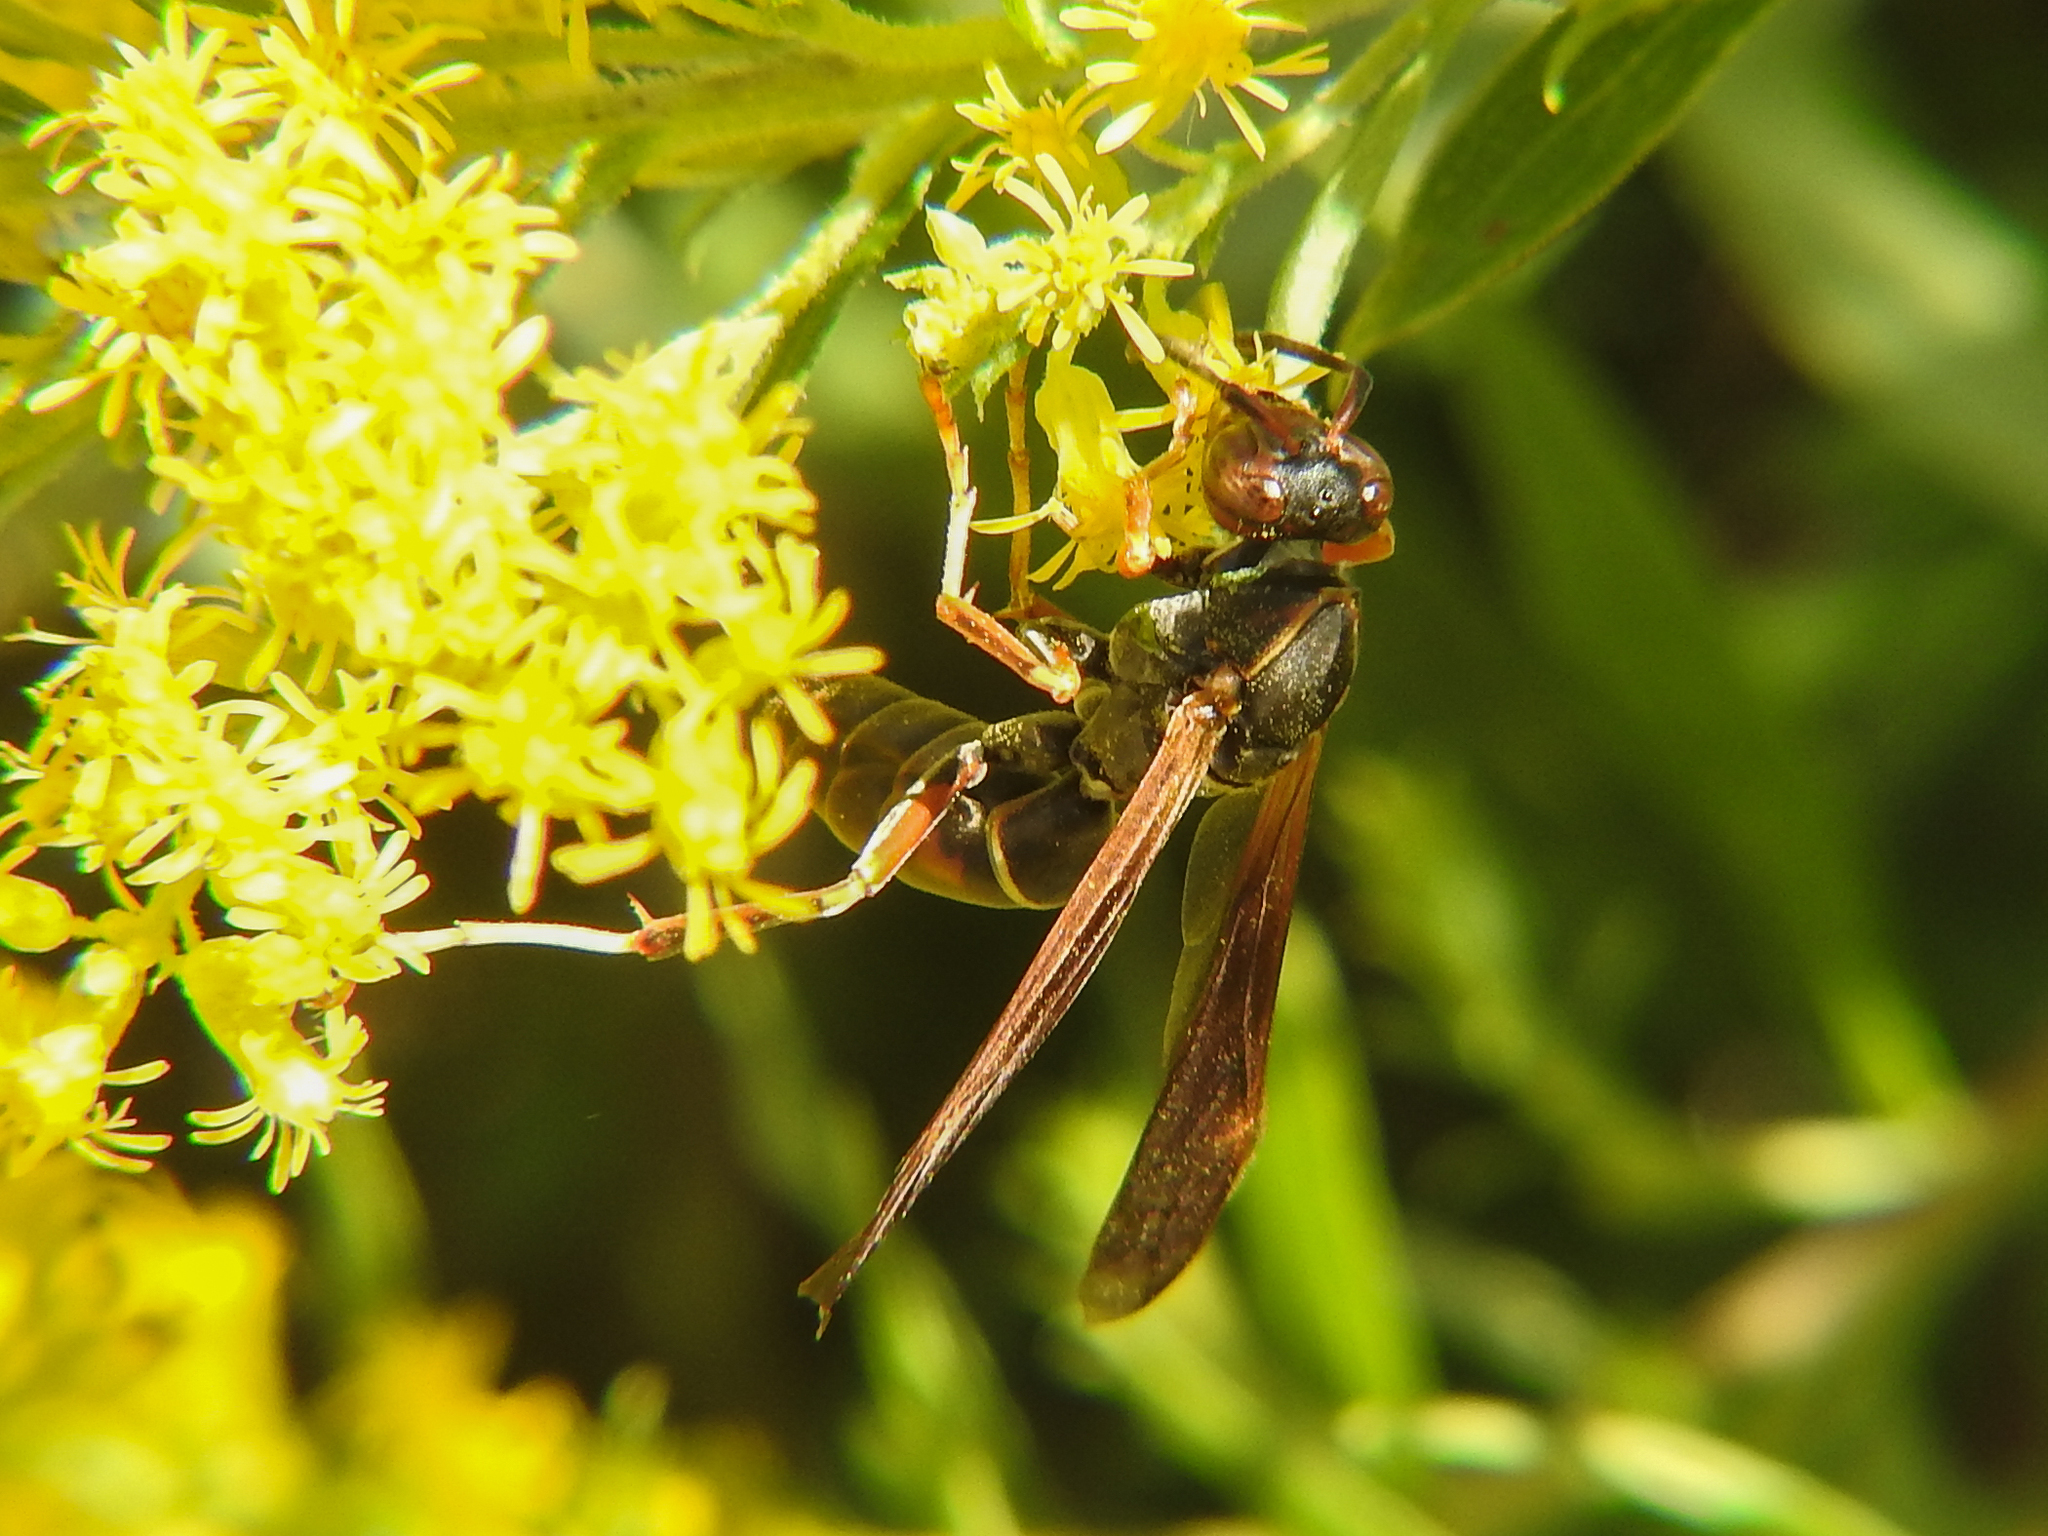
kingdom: Animalia
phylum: Arthropoda
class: Insecta
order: Hymenoptera
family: Eumenidae
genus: Polistes
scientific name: Polistes fuscatus
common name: Dark paper wasp
